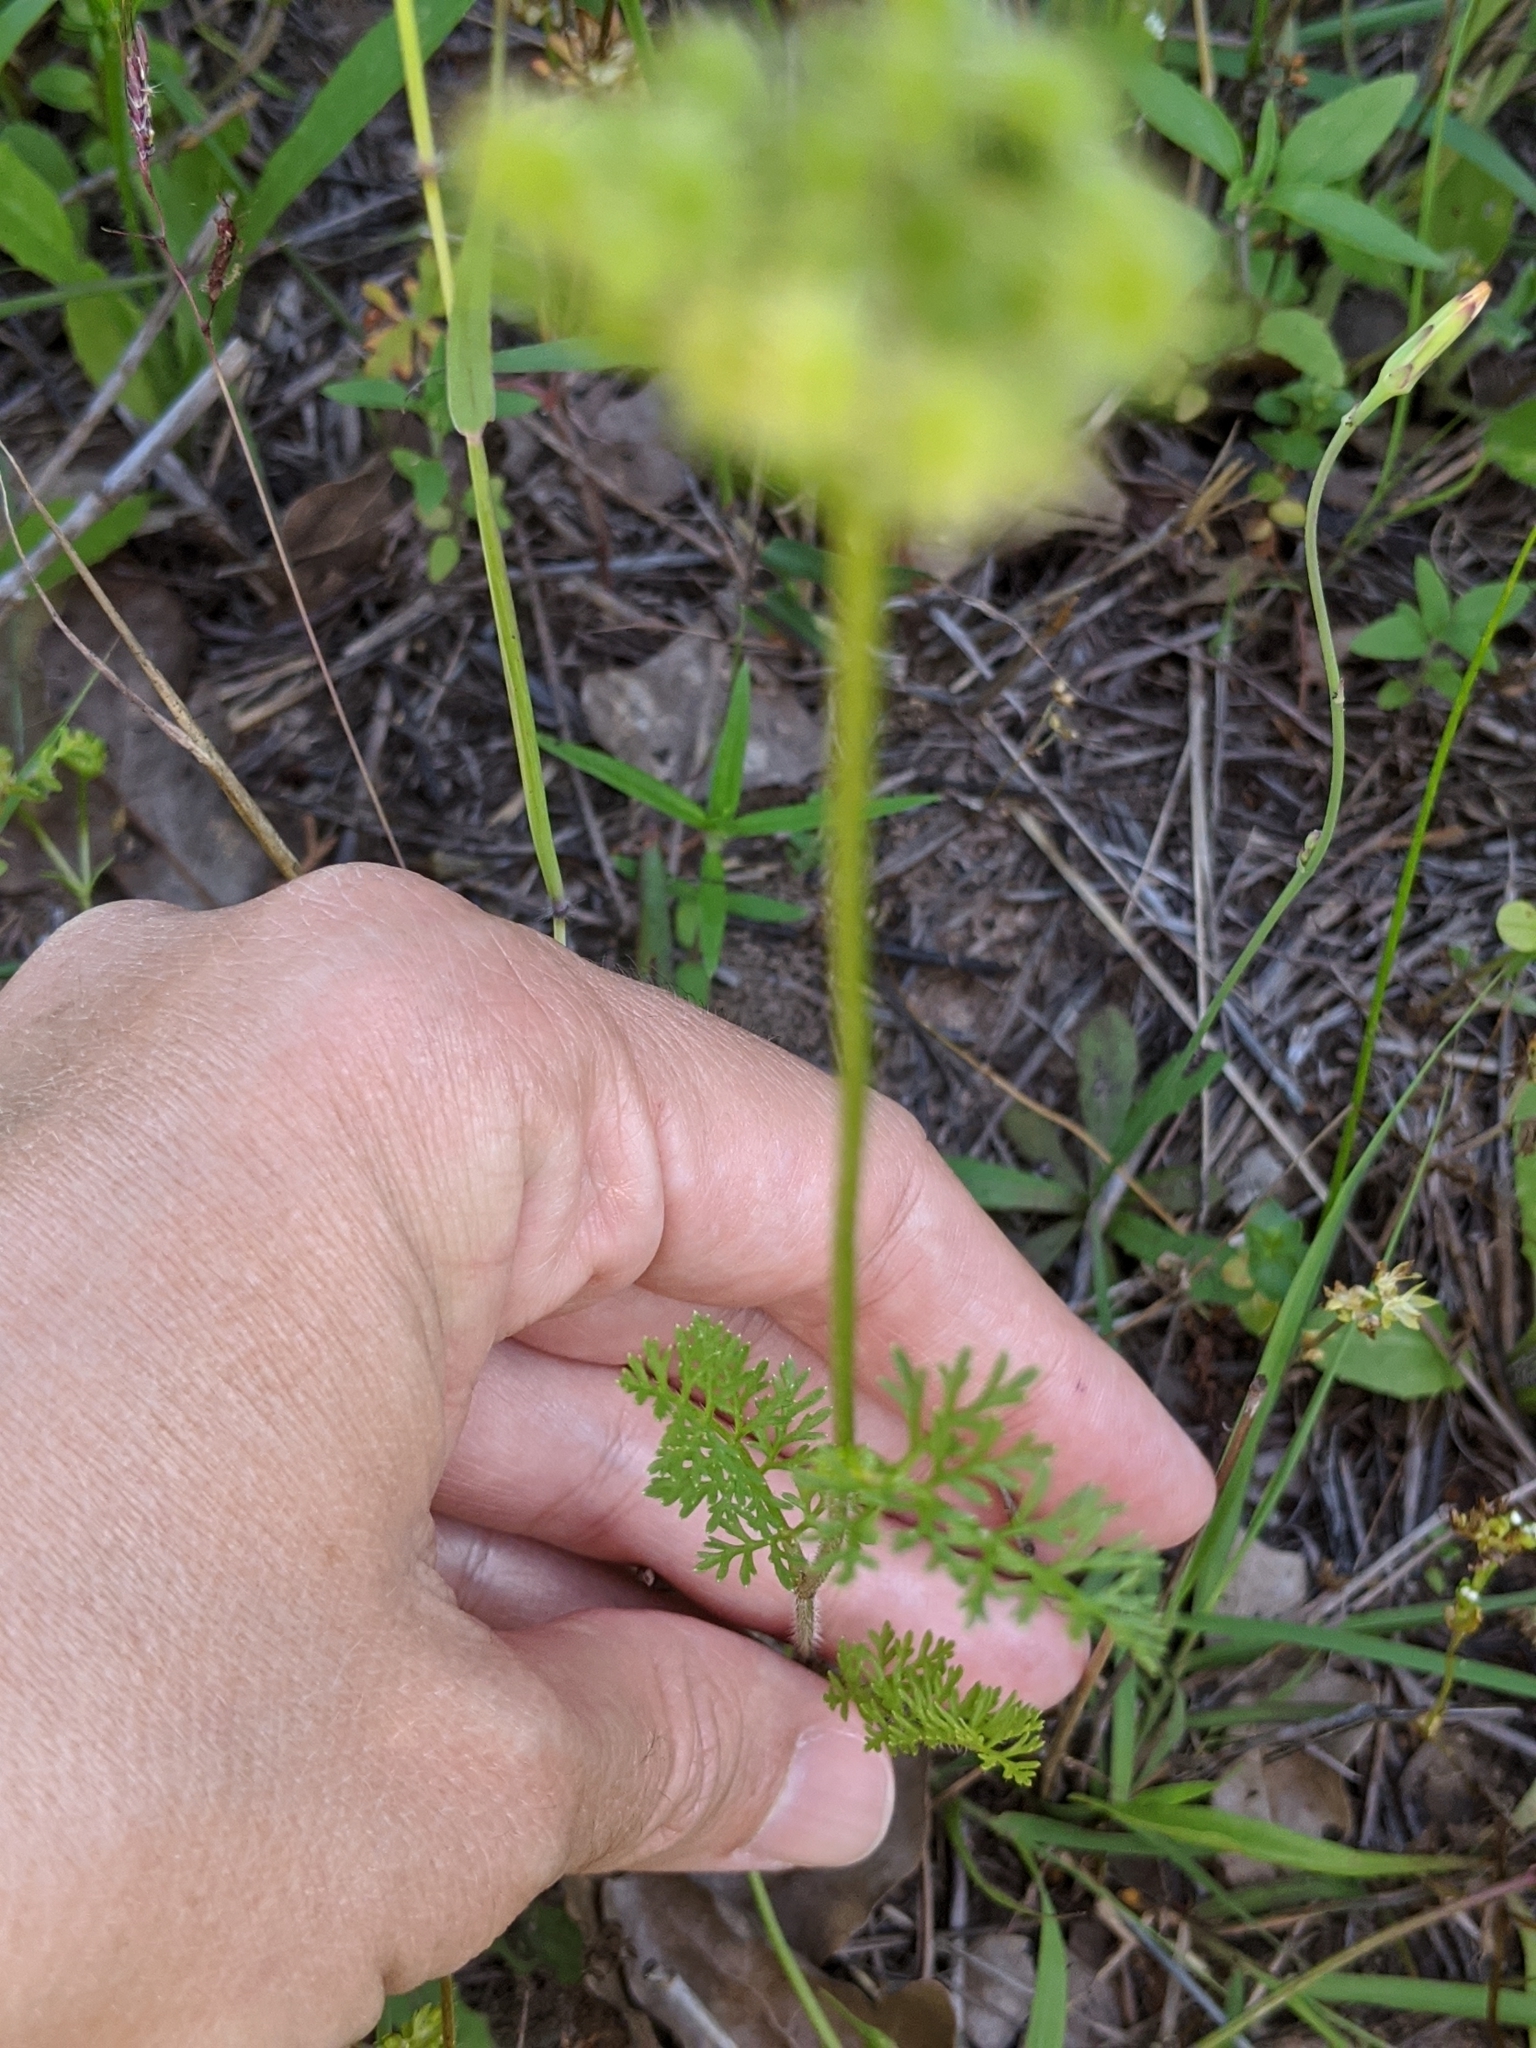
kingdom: Plantae
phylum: Tracheophyta
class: Magnoliopsida
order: Apiales
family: Apiaceae
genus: Daucus
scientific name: Daucus pusillus
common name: Southwest wild carrot
